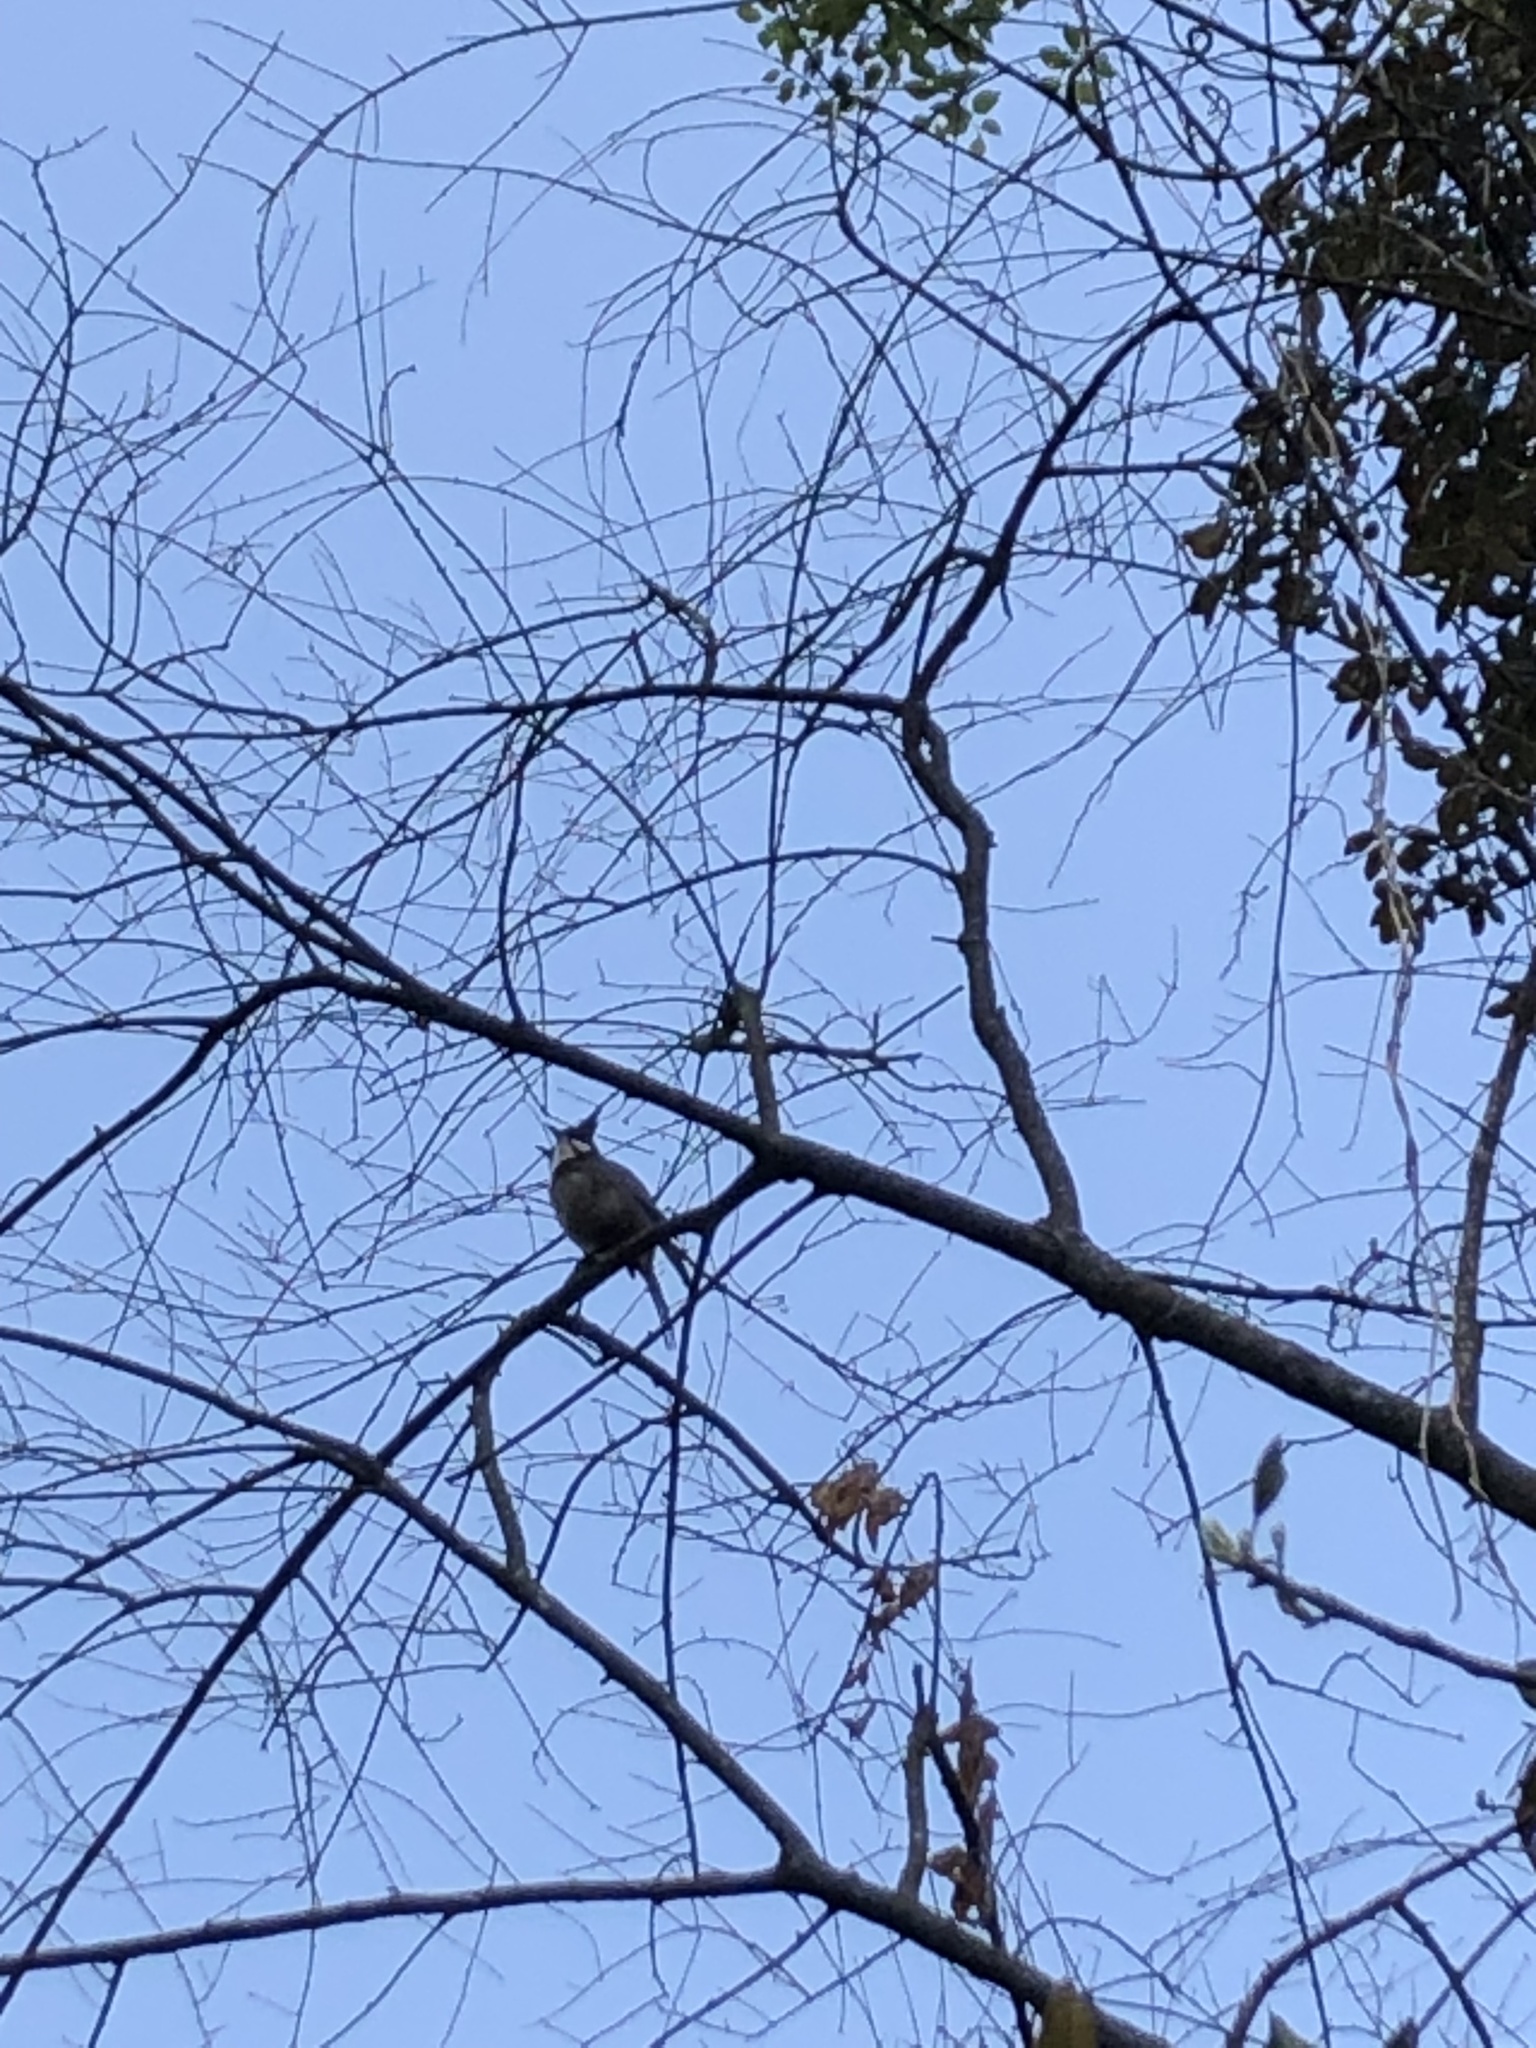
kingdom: Animalia
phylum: Chordata
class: Aves
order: Passeriformes
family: Pycnonotidae
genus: Pycnonotus
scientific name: Pycnonotus jocosus
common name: Red-whiskered bulbul
